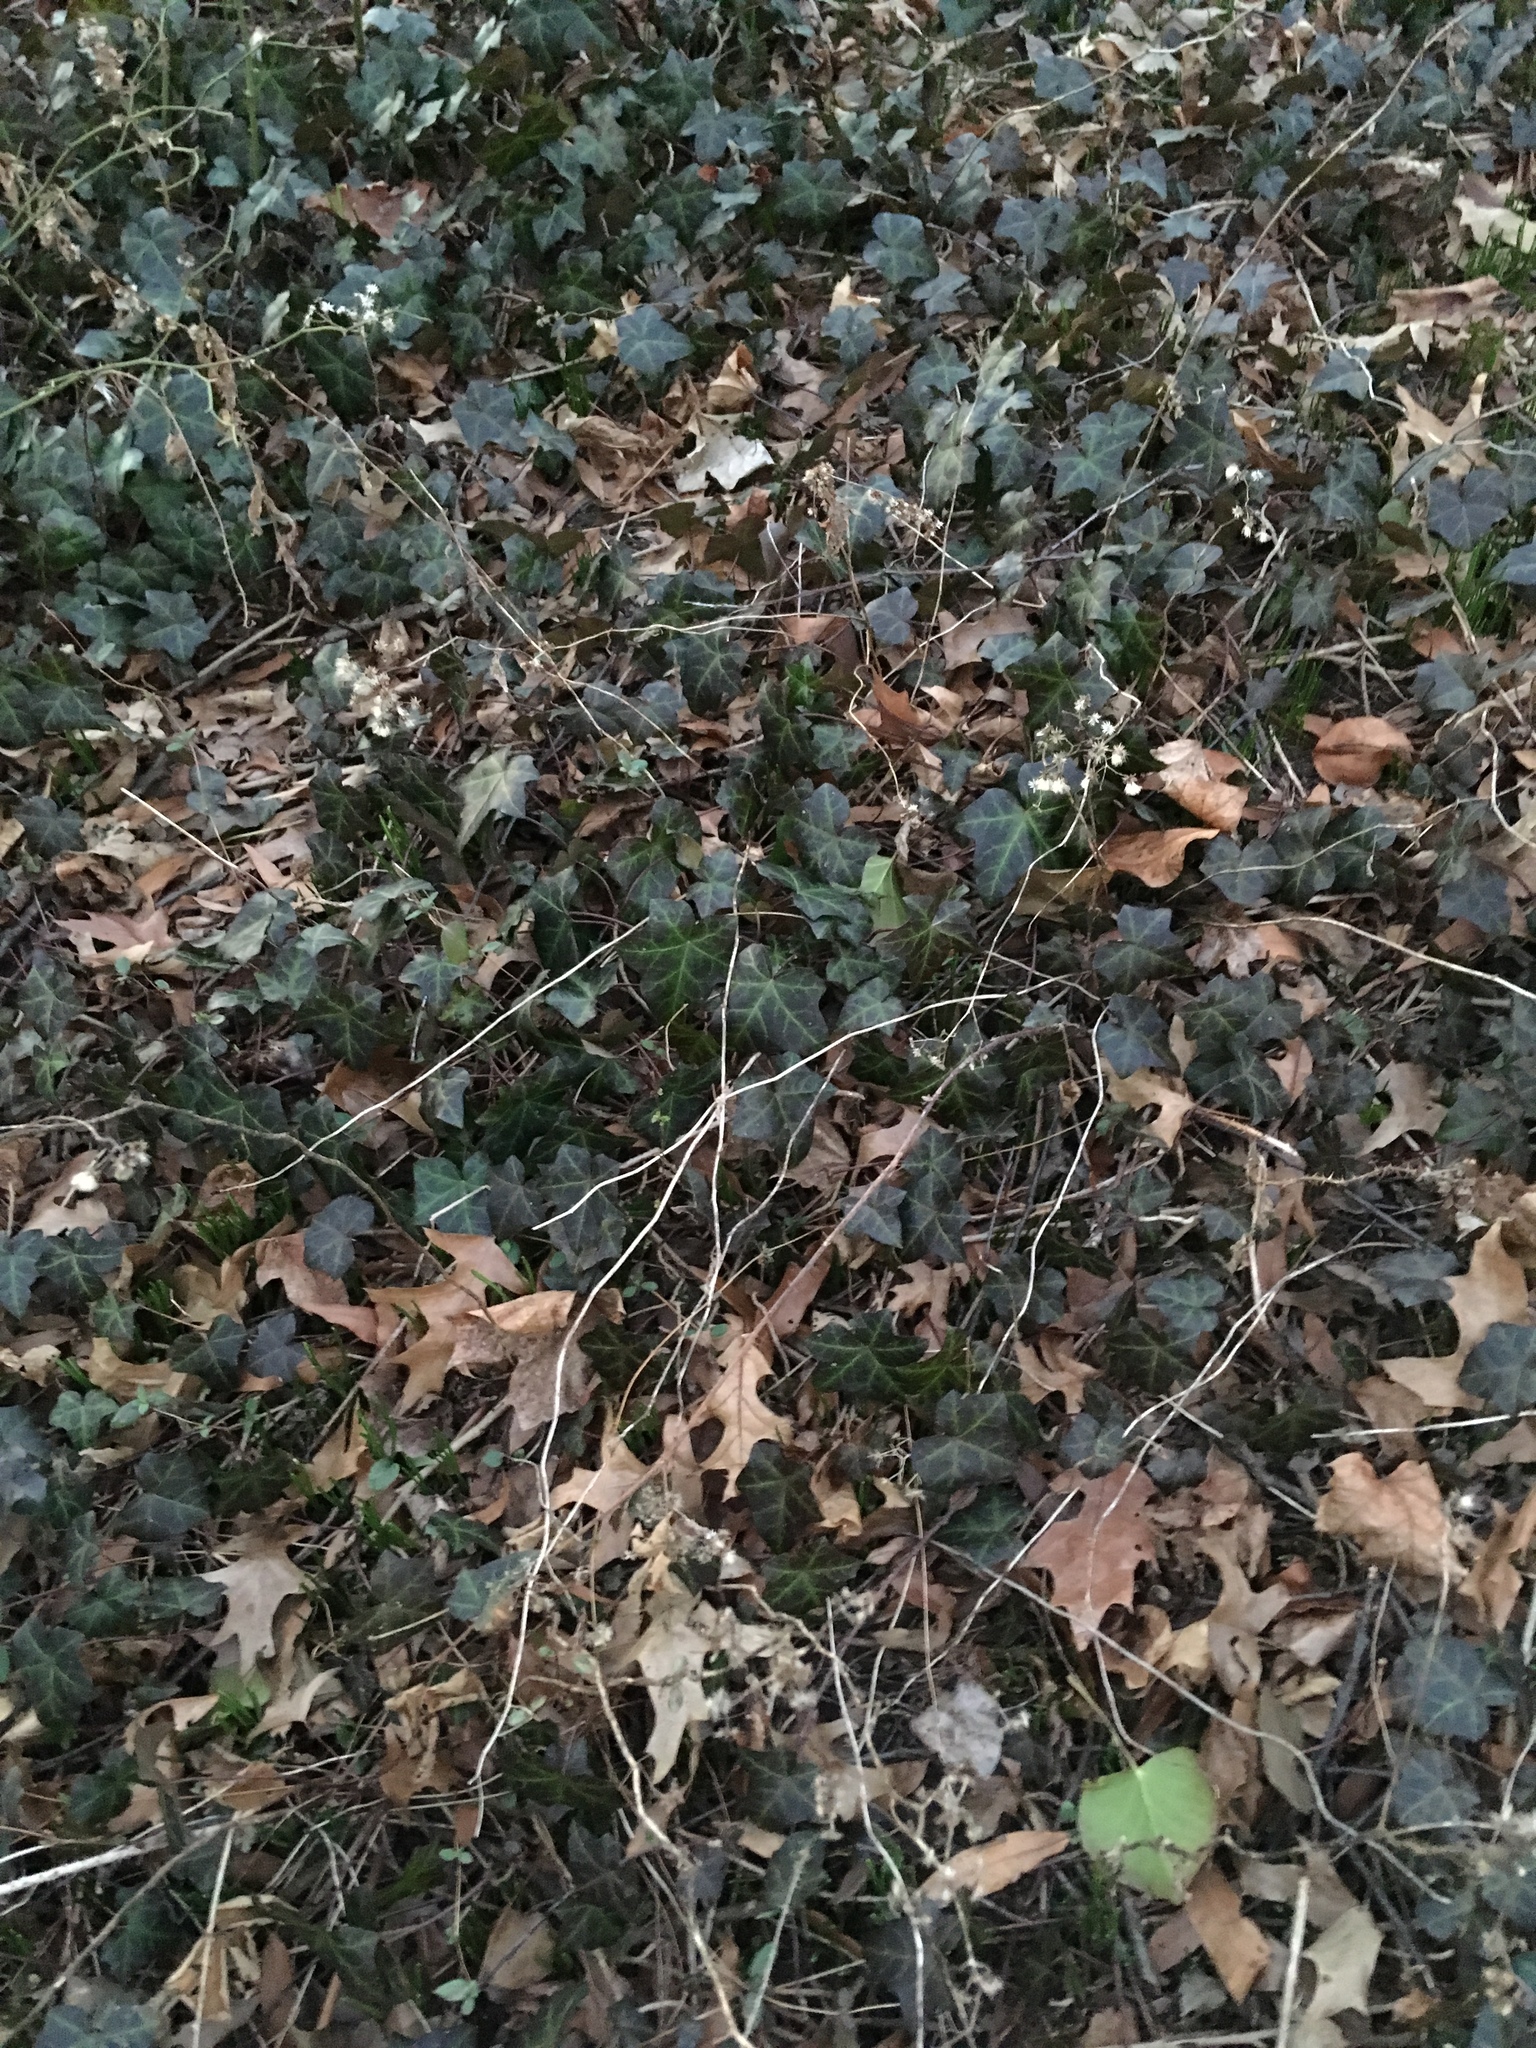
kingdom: Plantae
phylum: Tracheophyta
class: Magnoliopsida
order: Apiales
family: Araliaceae
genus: Hedera
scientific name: Hedera helix
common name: Ivy
